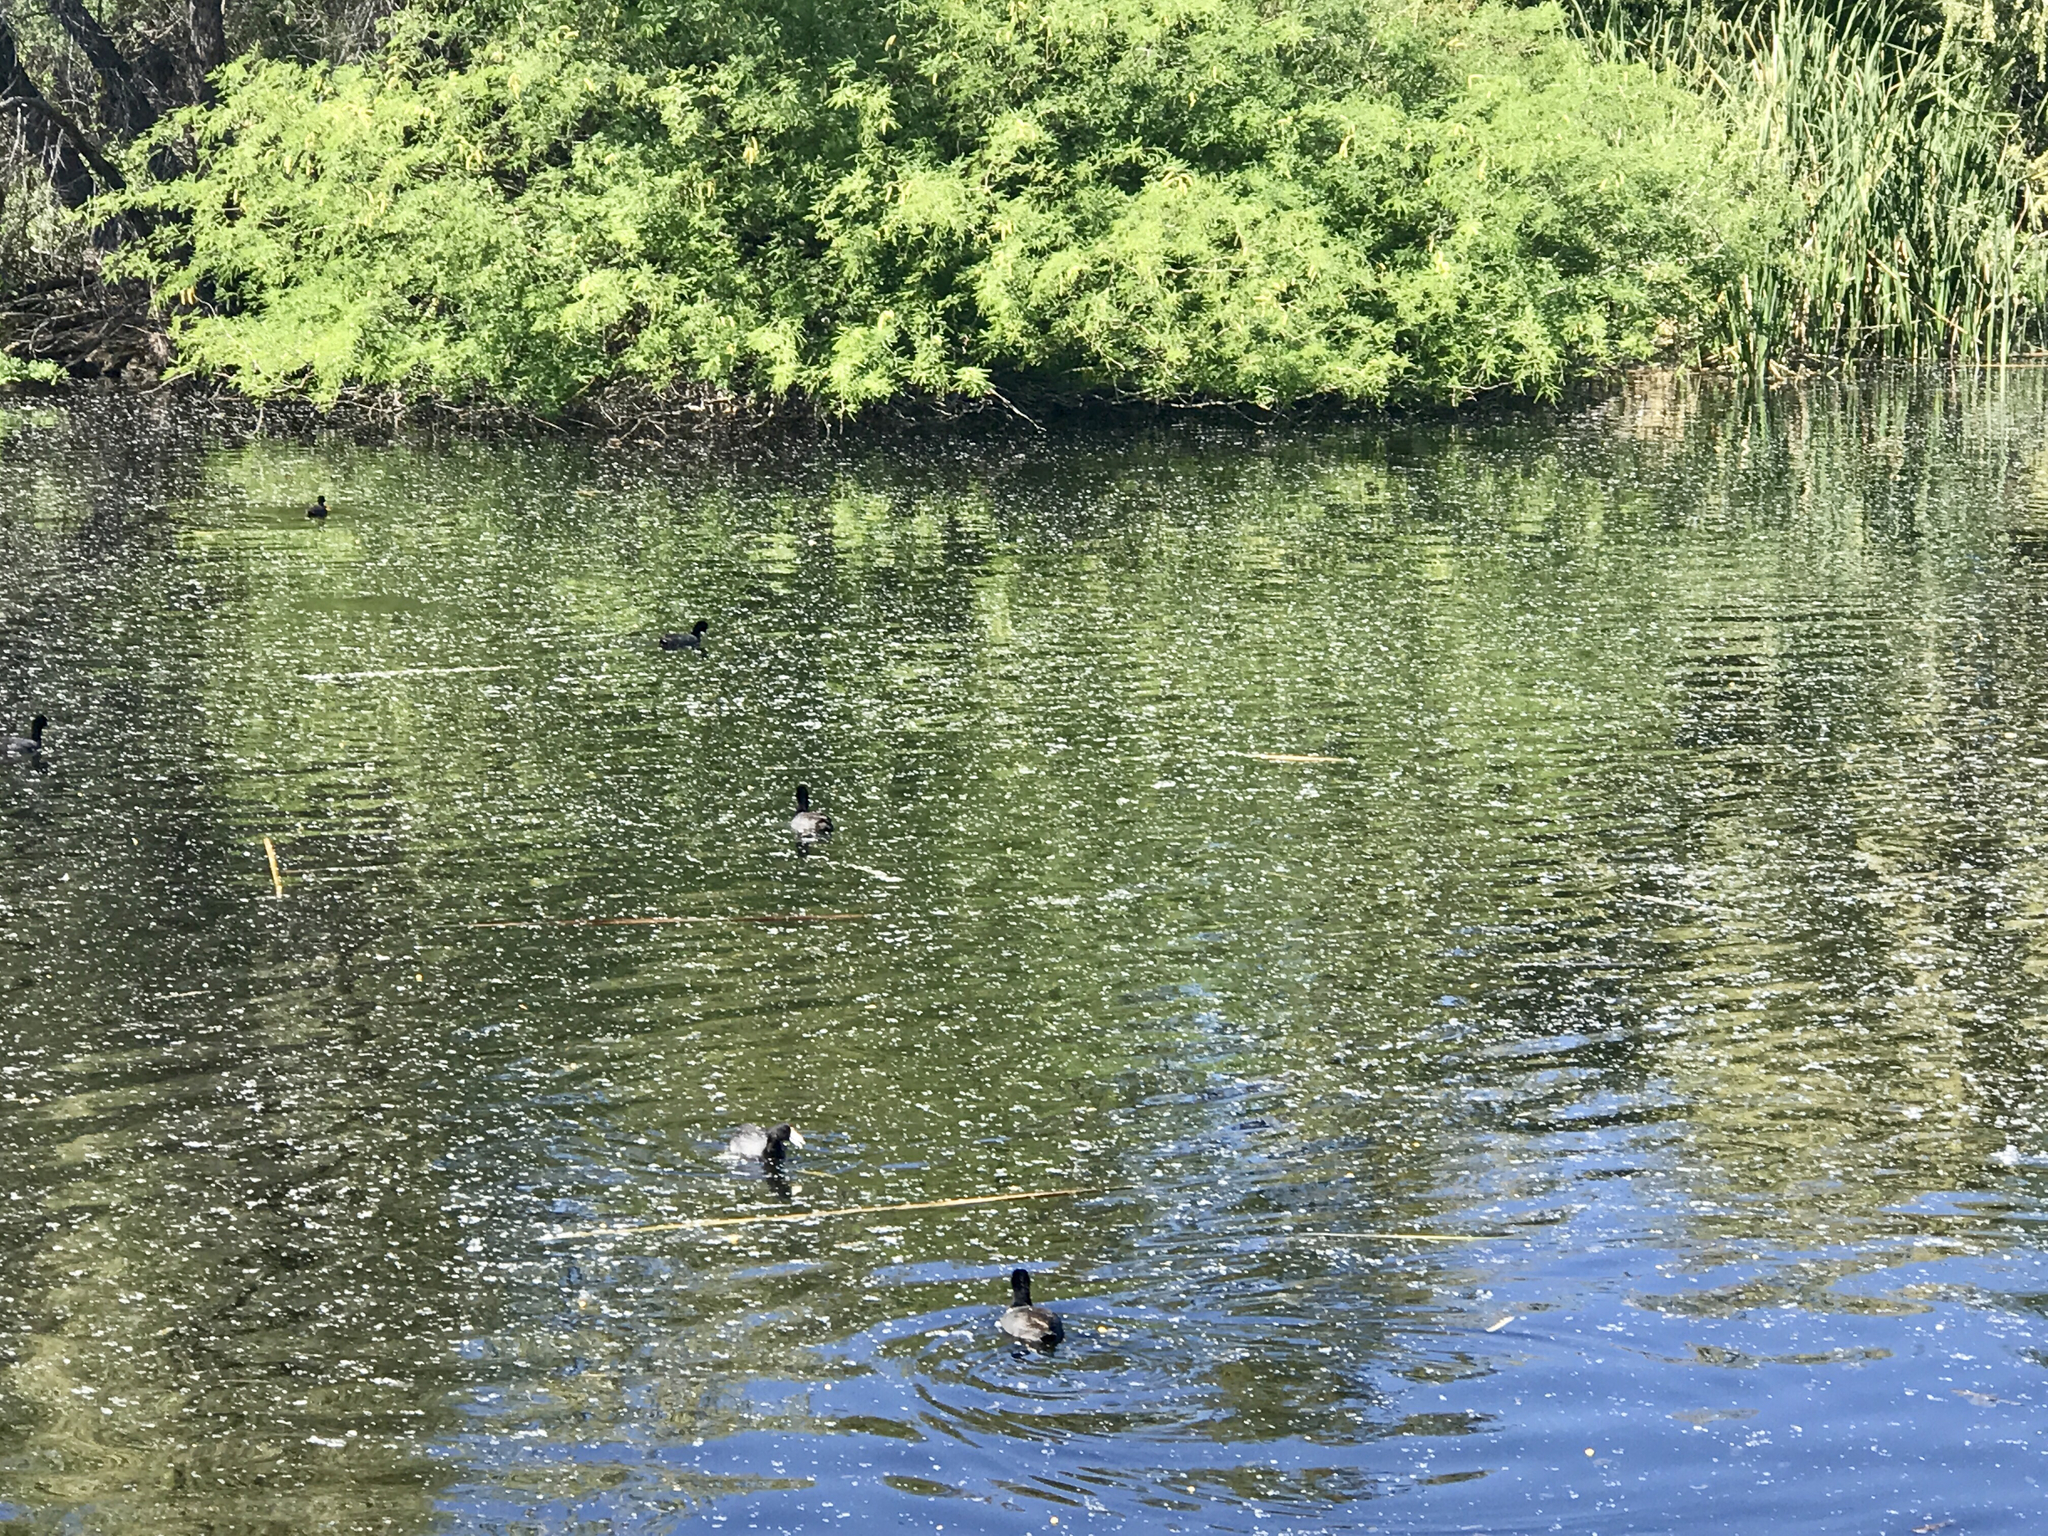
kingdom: Animalia
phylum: Chordata
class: Aves
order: Gruiformes
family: Rallidae
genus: Fulica
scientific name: Fulica americana
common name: American coot
